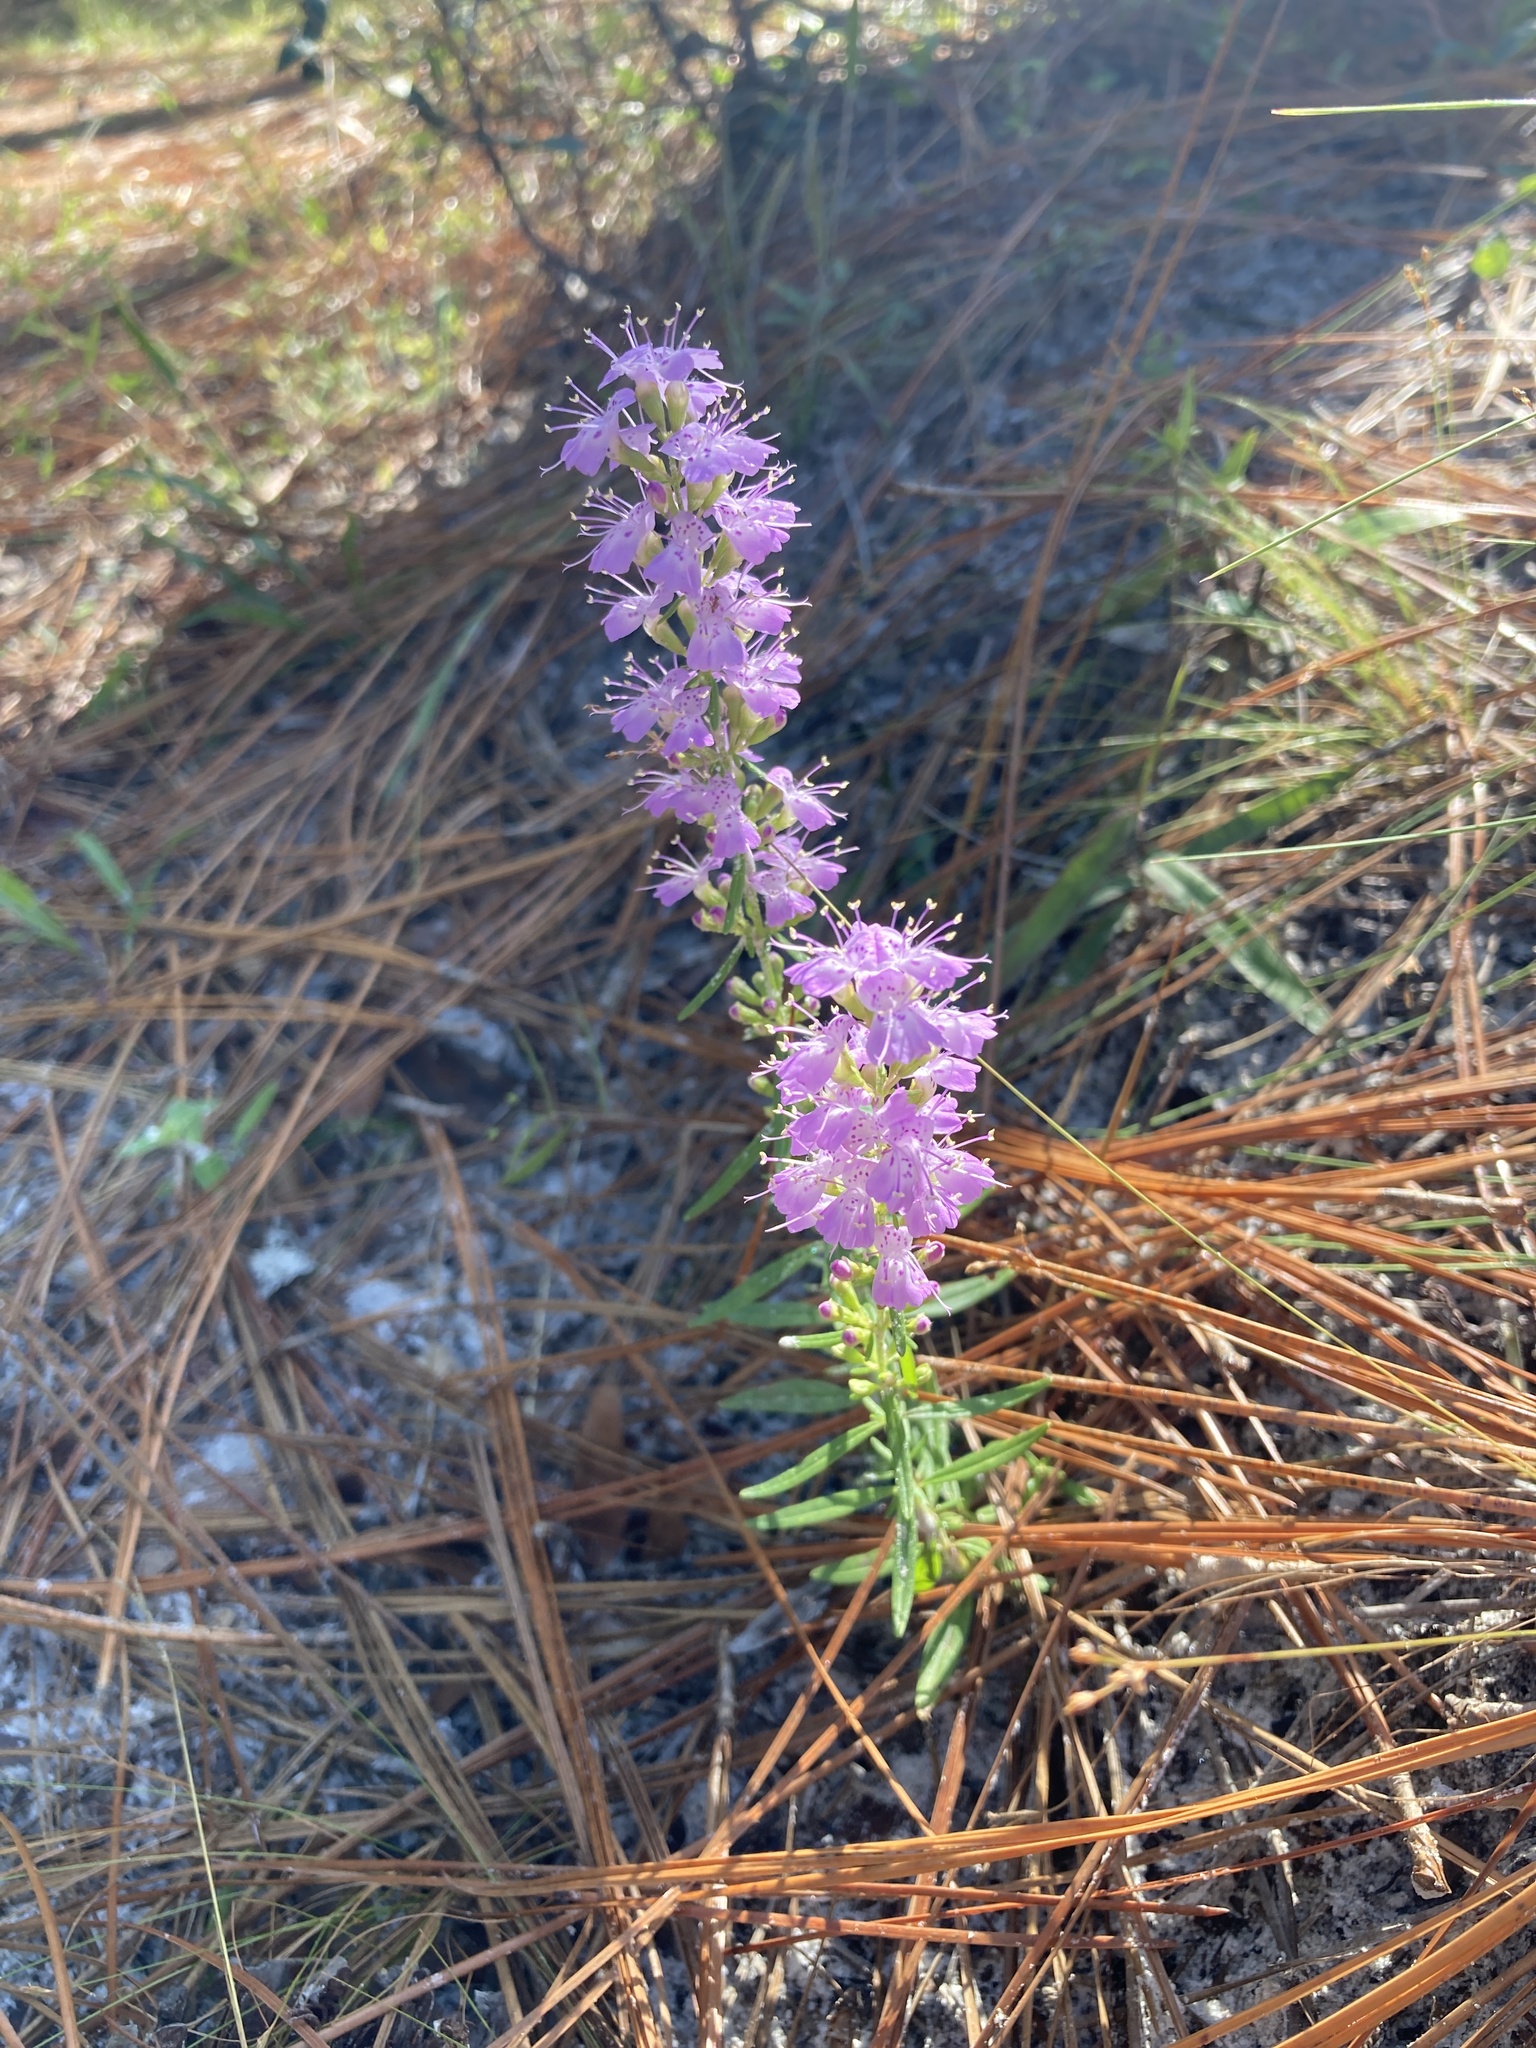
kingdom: Plantae
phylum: Tracheophyta
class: Magnoliopsida
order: Lamiales
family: Lamiaceae
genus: Dicerandra
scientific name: Dicerandra densiflora
